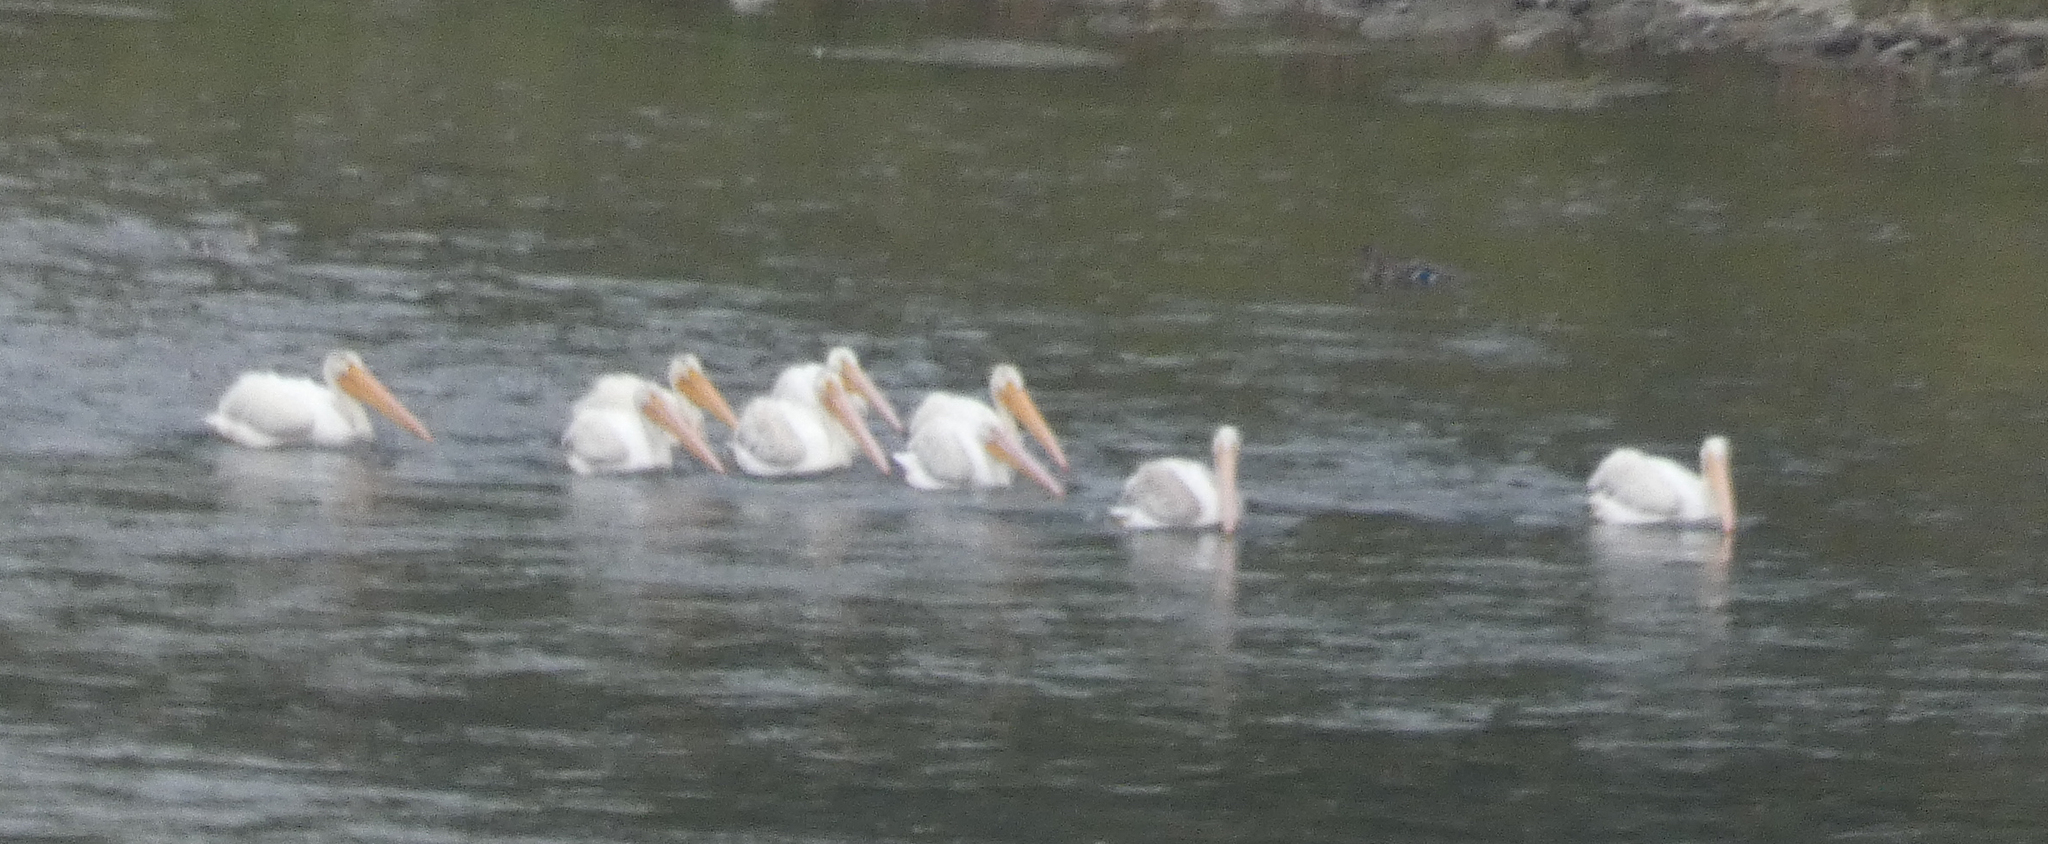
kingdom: Animalia
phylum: Chordata
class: Aves
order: Pelecaniformes
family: Pelecanidae
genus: Pelecanus
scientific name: Pelecanus erythrorhynchos
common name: American white pelican
